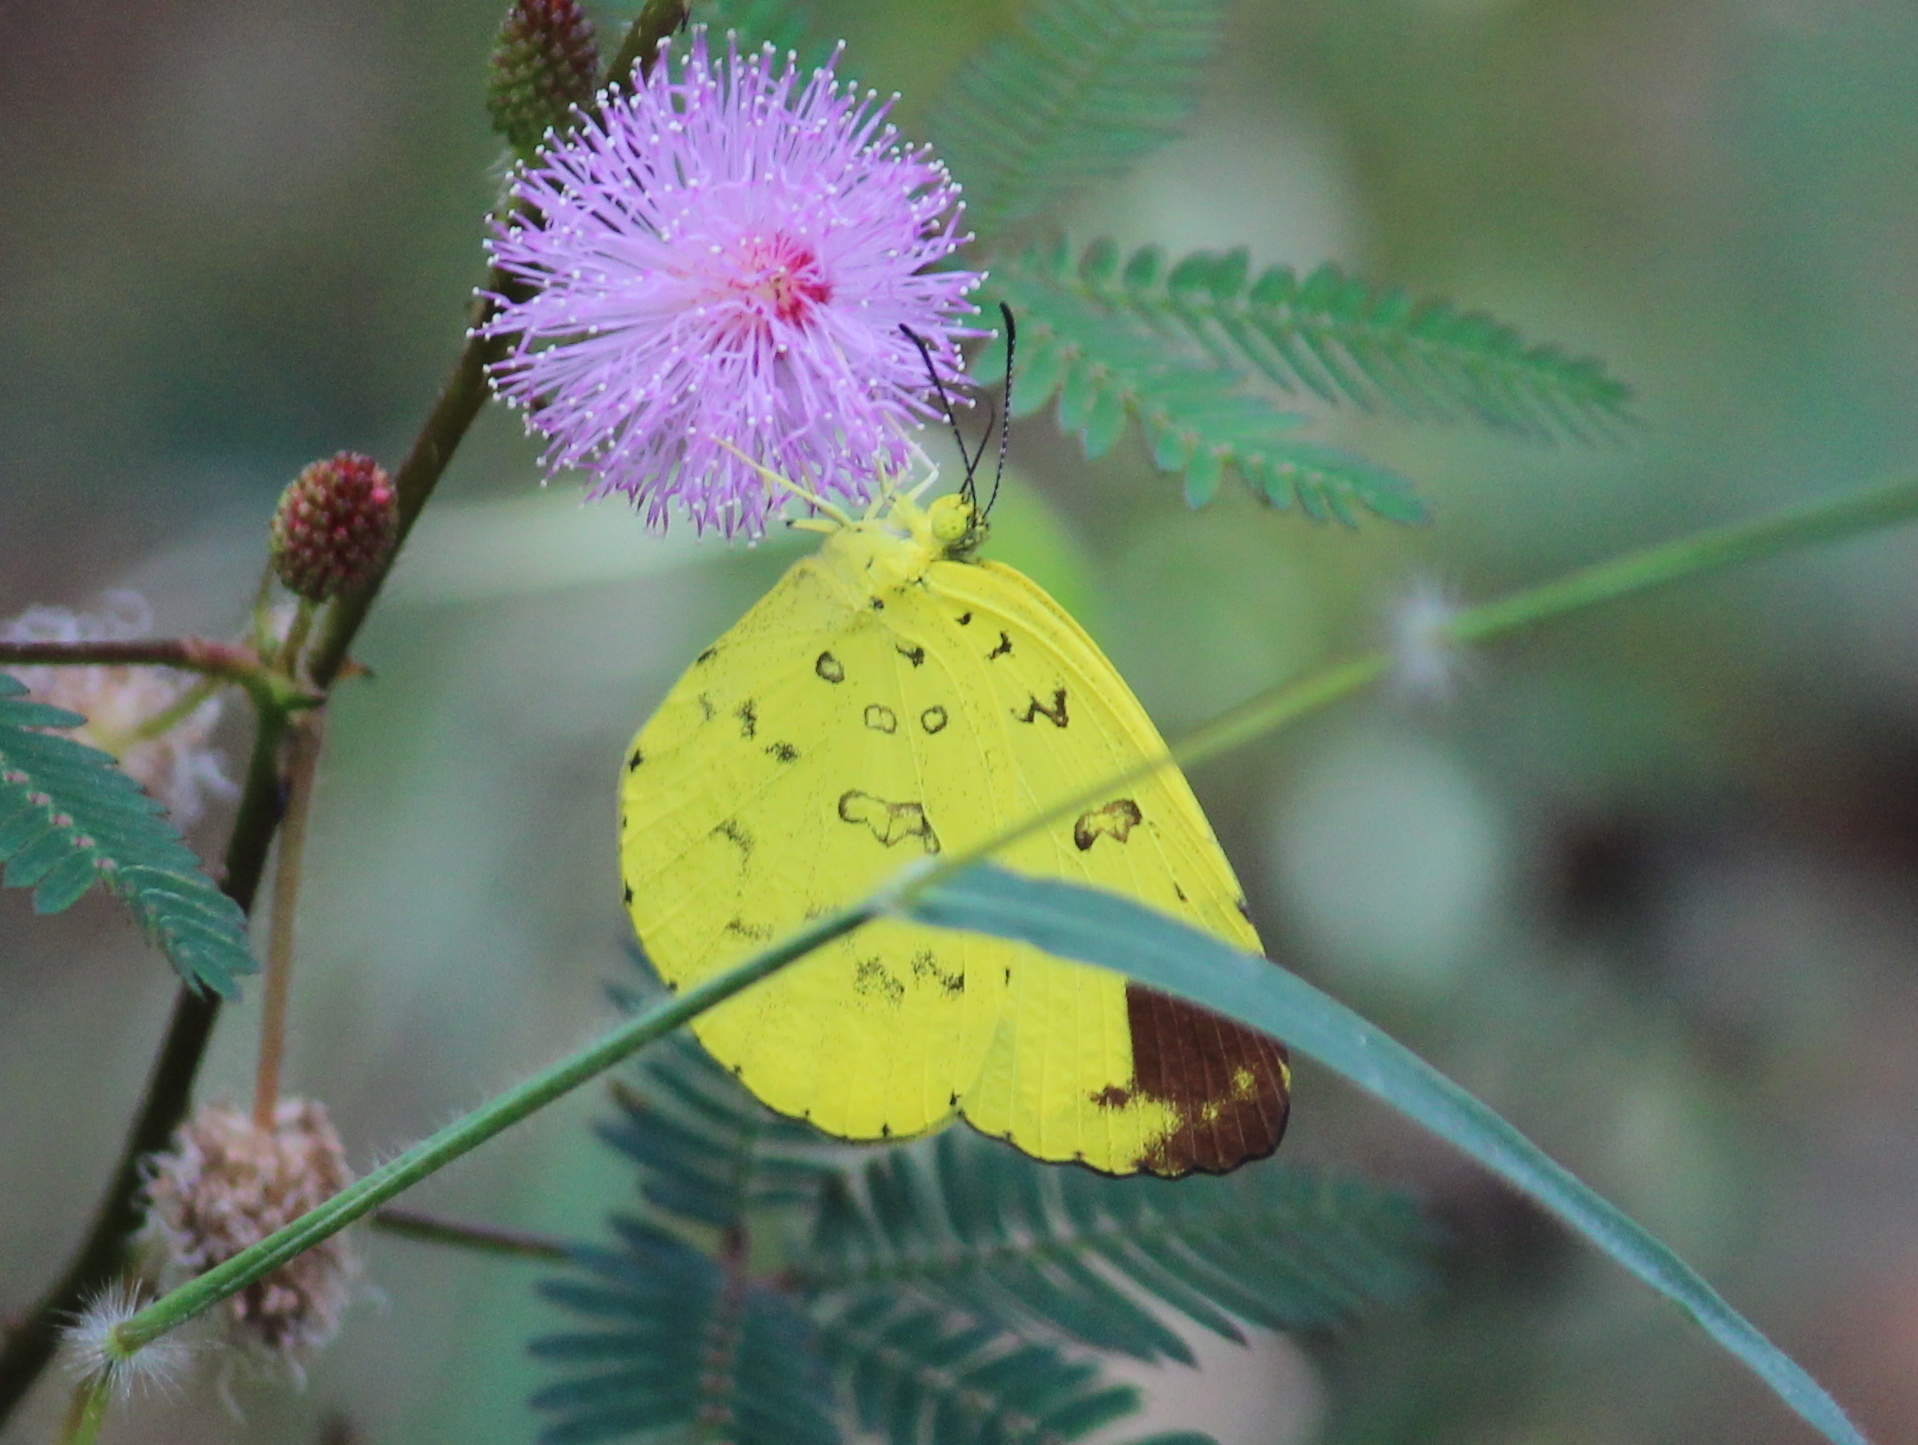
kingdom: Animalia
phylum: Arthropoda
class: Insecta
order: Lepidoptera
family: Pieridae
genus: Eurema
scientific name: Eurema blanda
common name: Three-spot grass yellow
